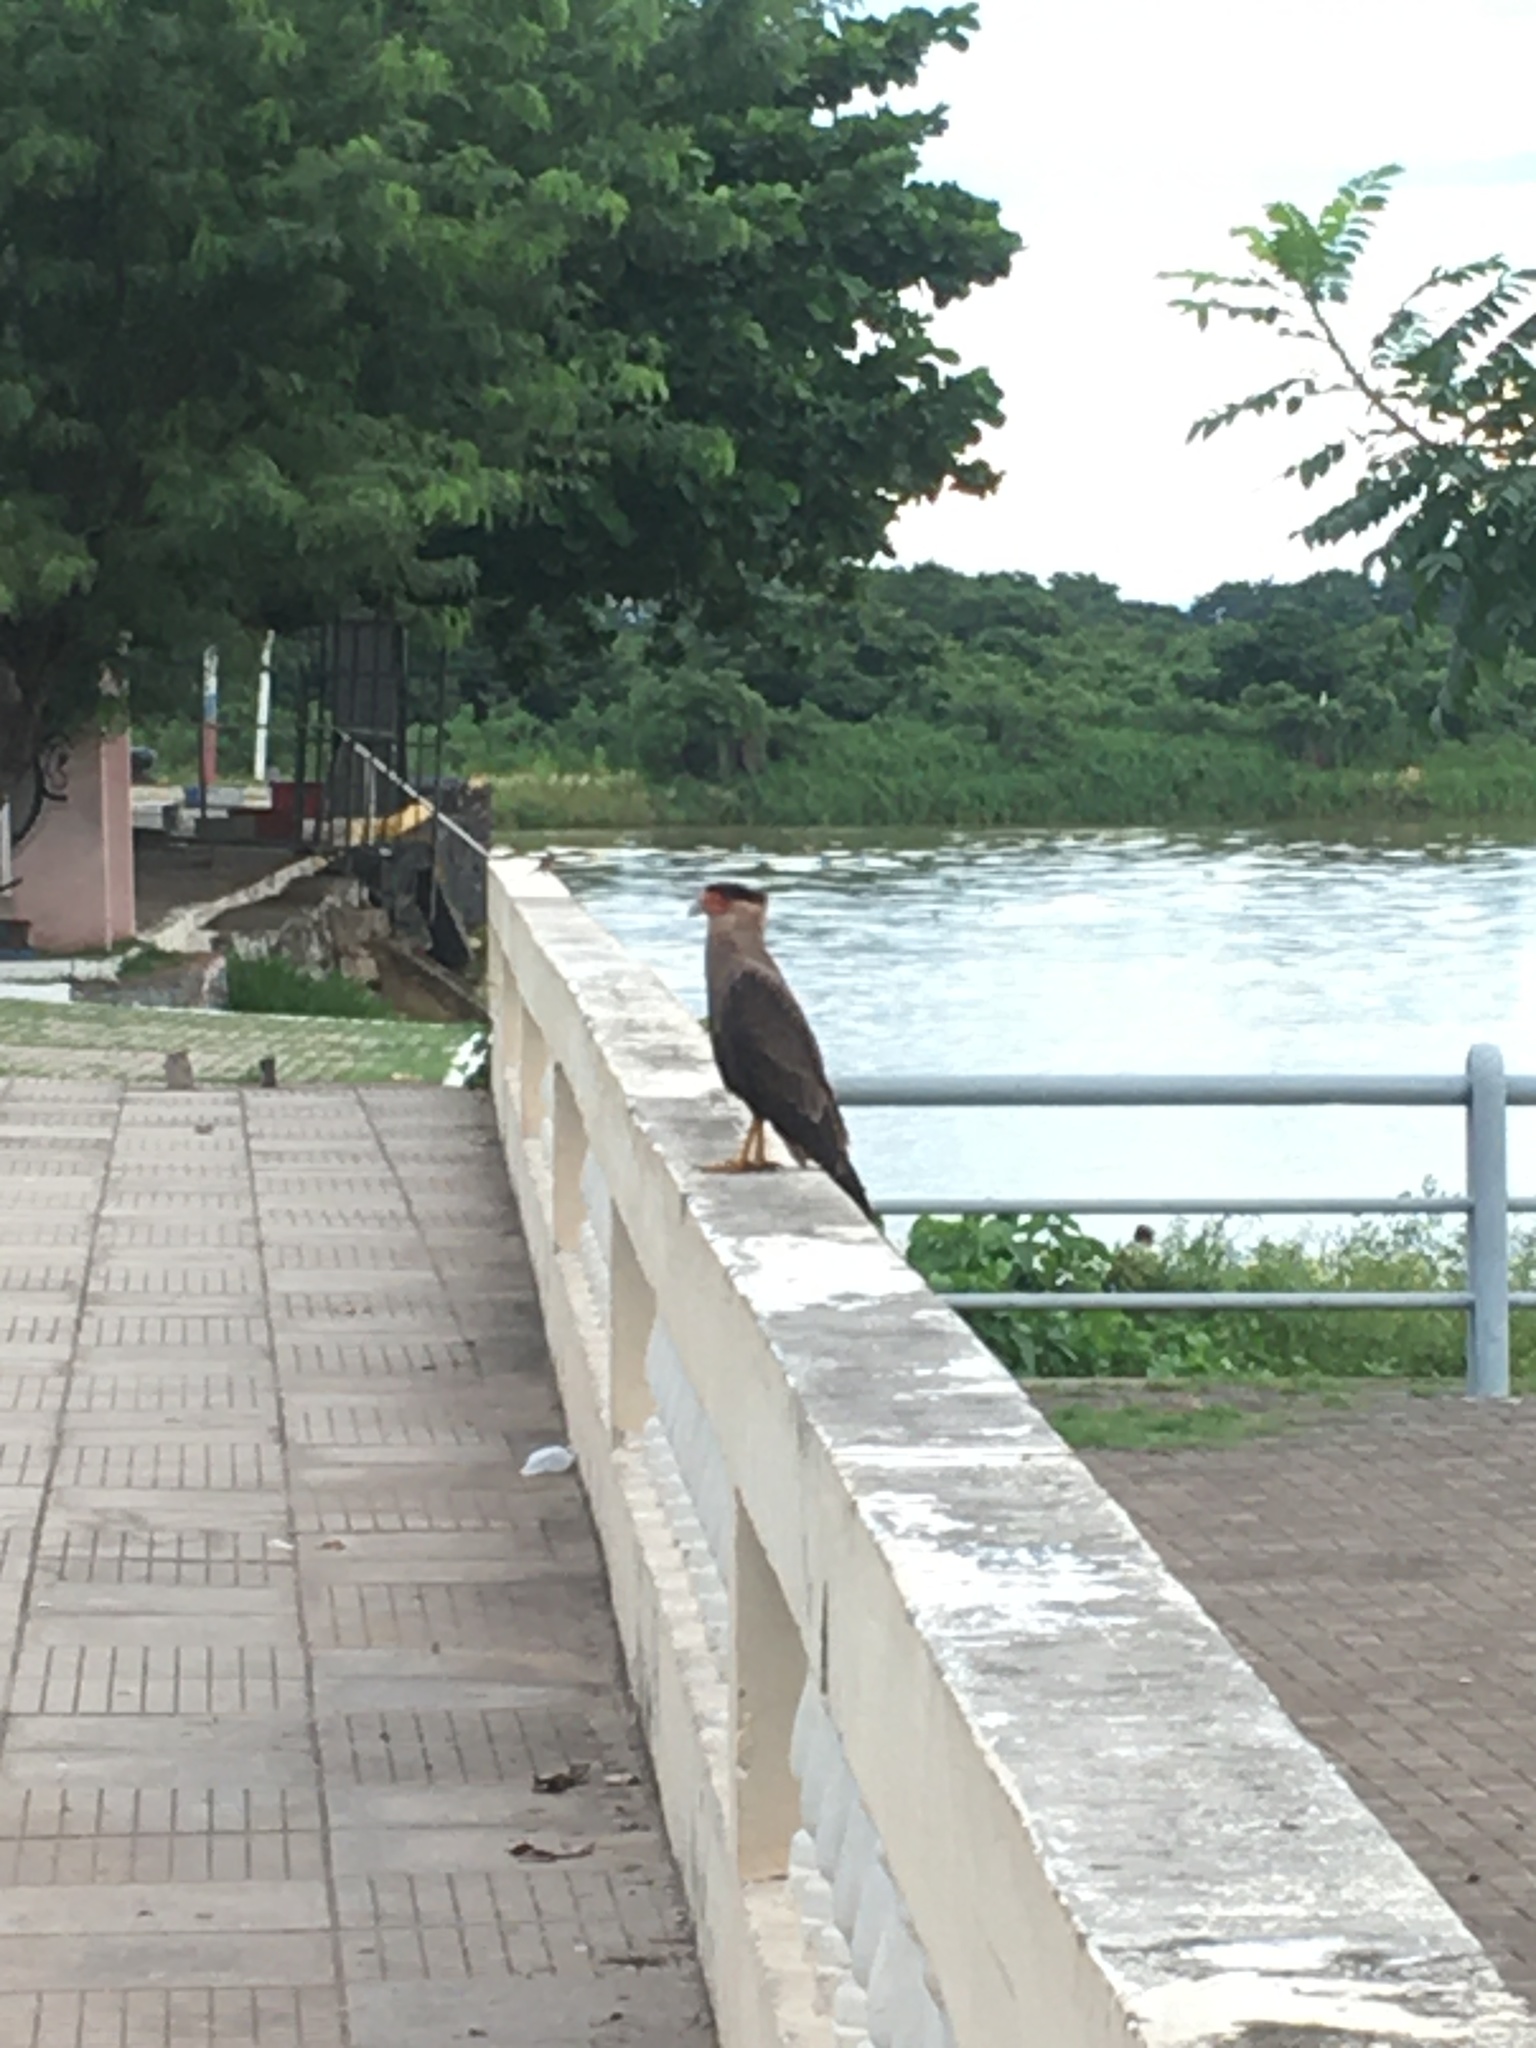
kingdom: Animalia
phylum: Chordata
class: Aves
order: Falconiformes
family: Falconidae
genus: Caracara
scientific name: Caracara plancus
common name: Southern caracara
